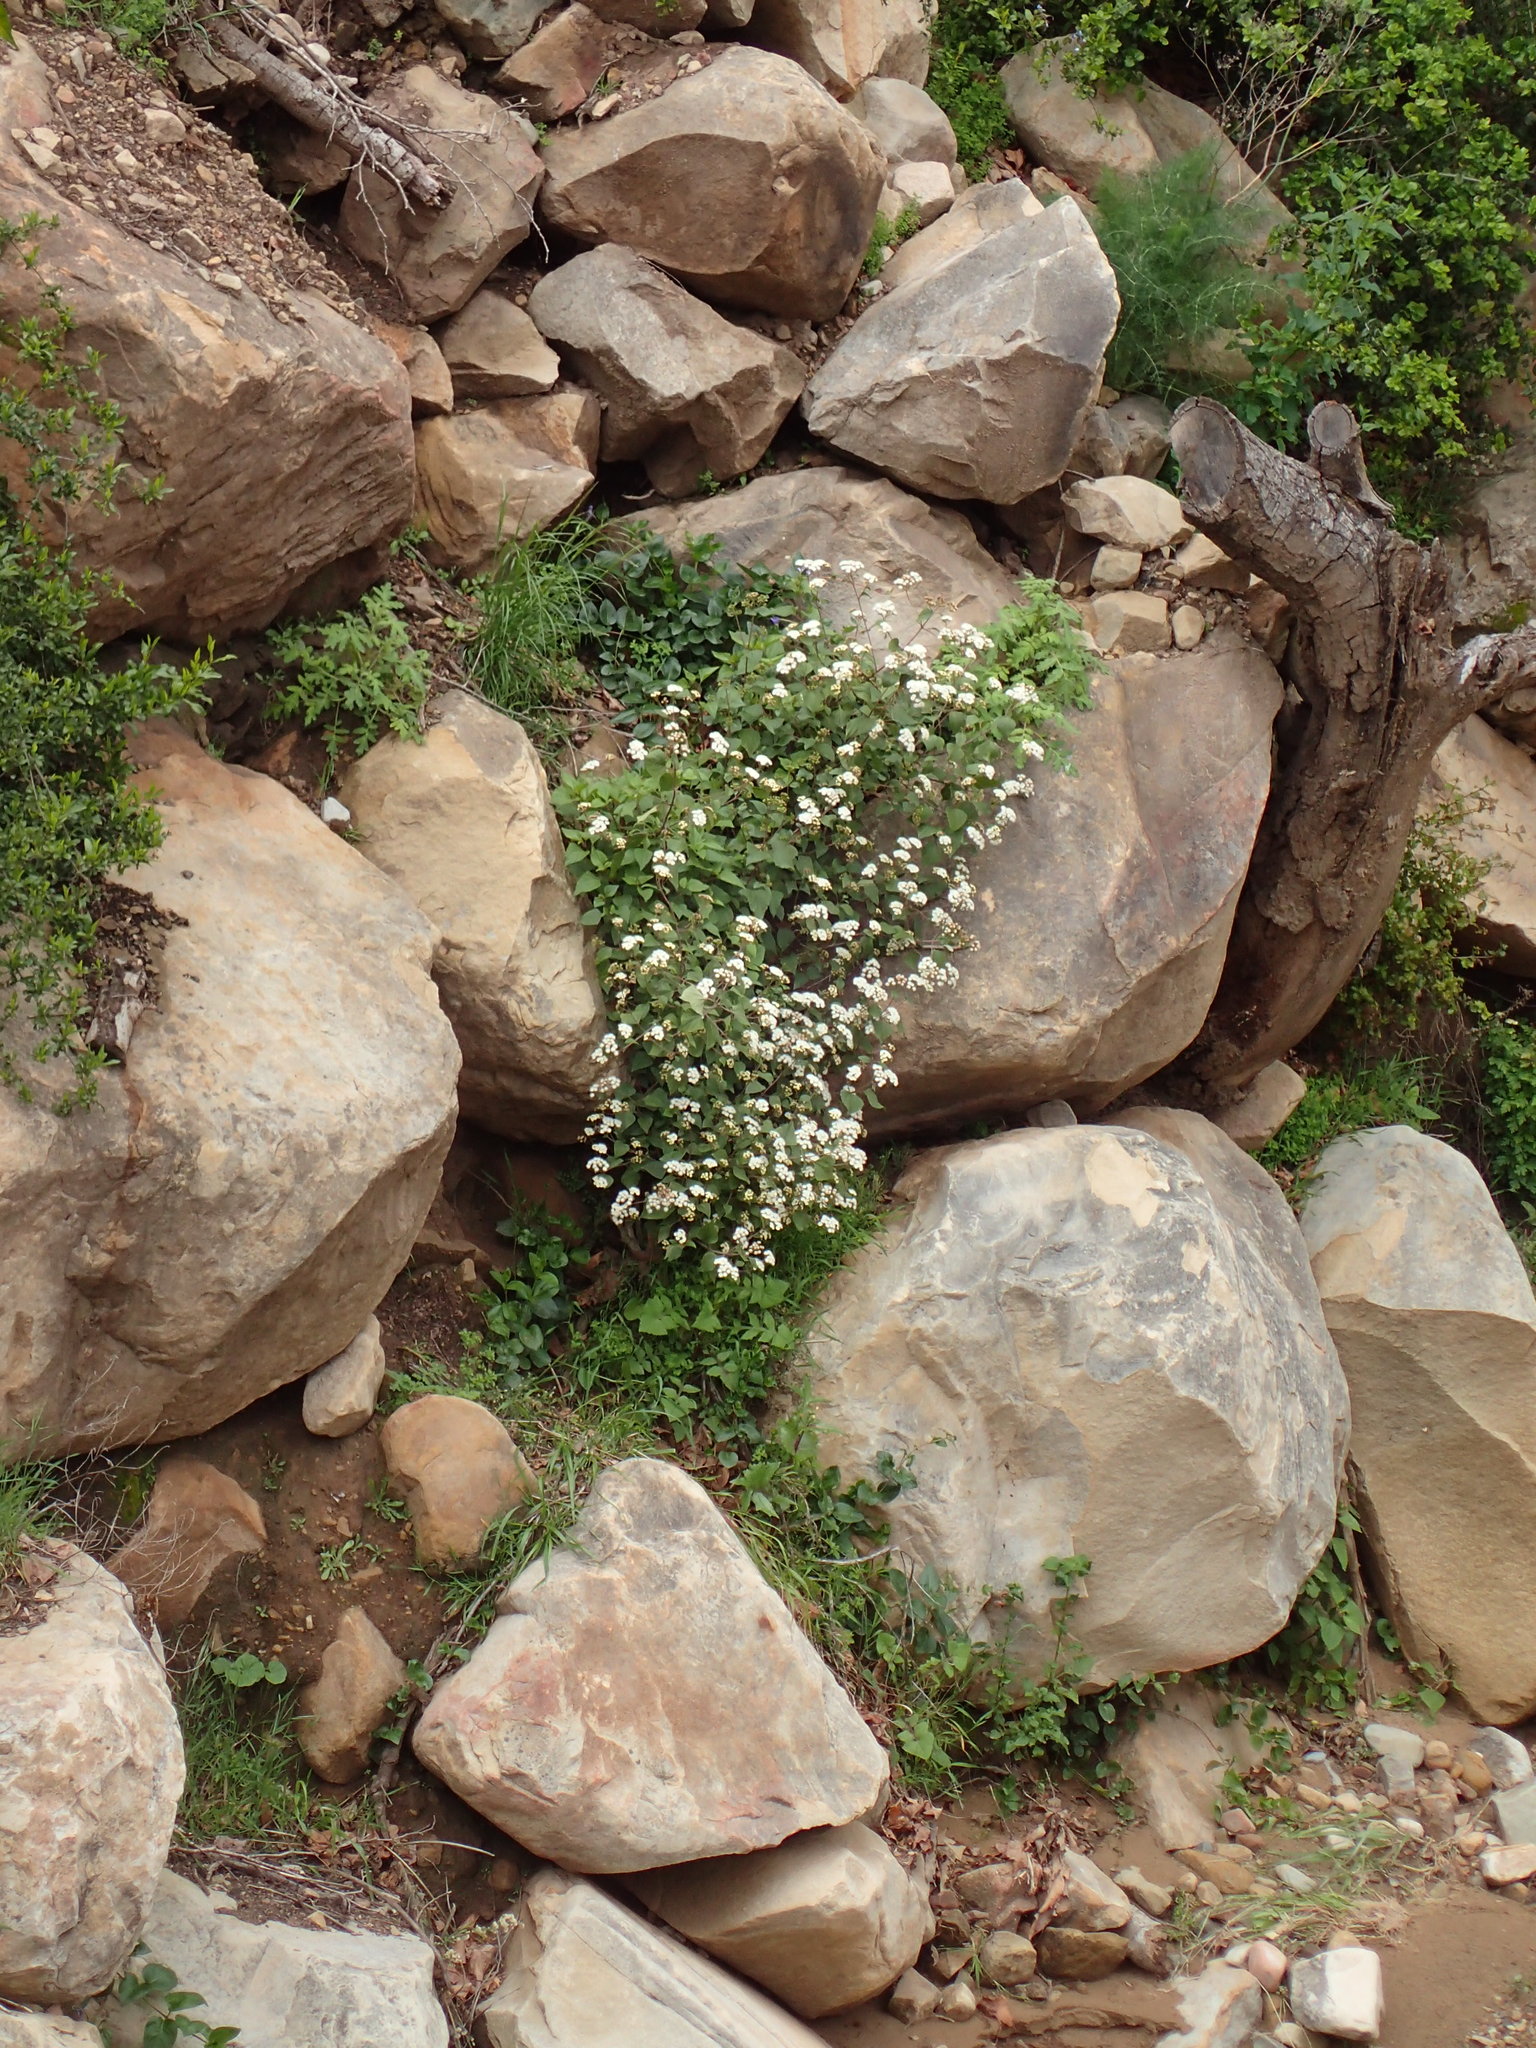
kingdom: Plantae
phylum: Tracheophyta
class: Magnoliopsida
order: Asterales
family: Asteraceae
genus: Ageratina
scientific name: Ageratina adenophora
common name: Sticky snakeroot
